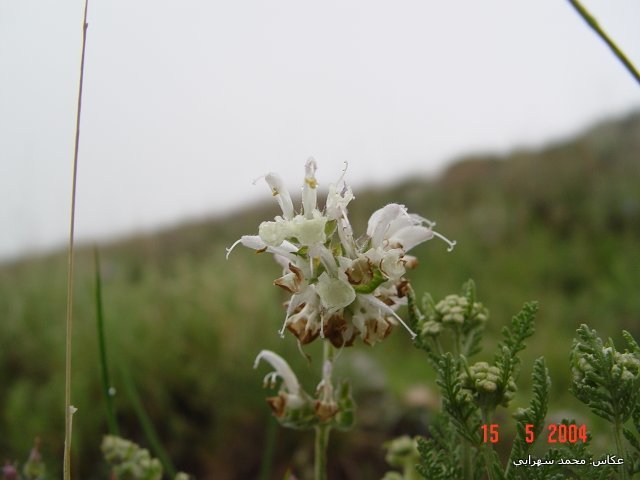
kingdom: Plantae
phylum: Tracheophyta
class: Magnoliopsida
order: Lamiales
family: Lamiaceae
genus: Salvia
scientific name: Salvia verbascifolia
